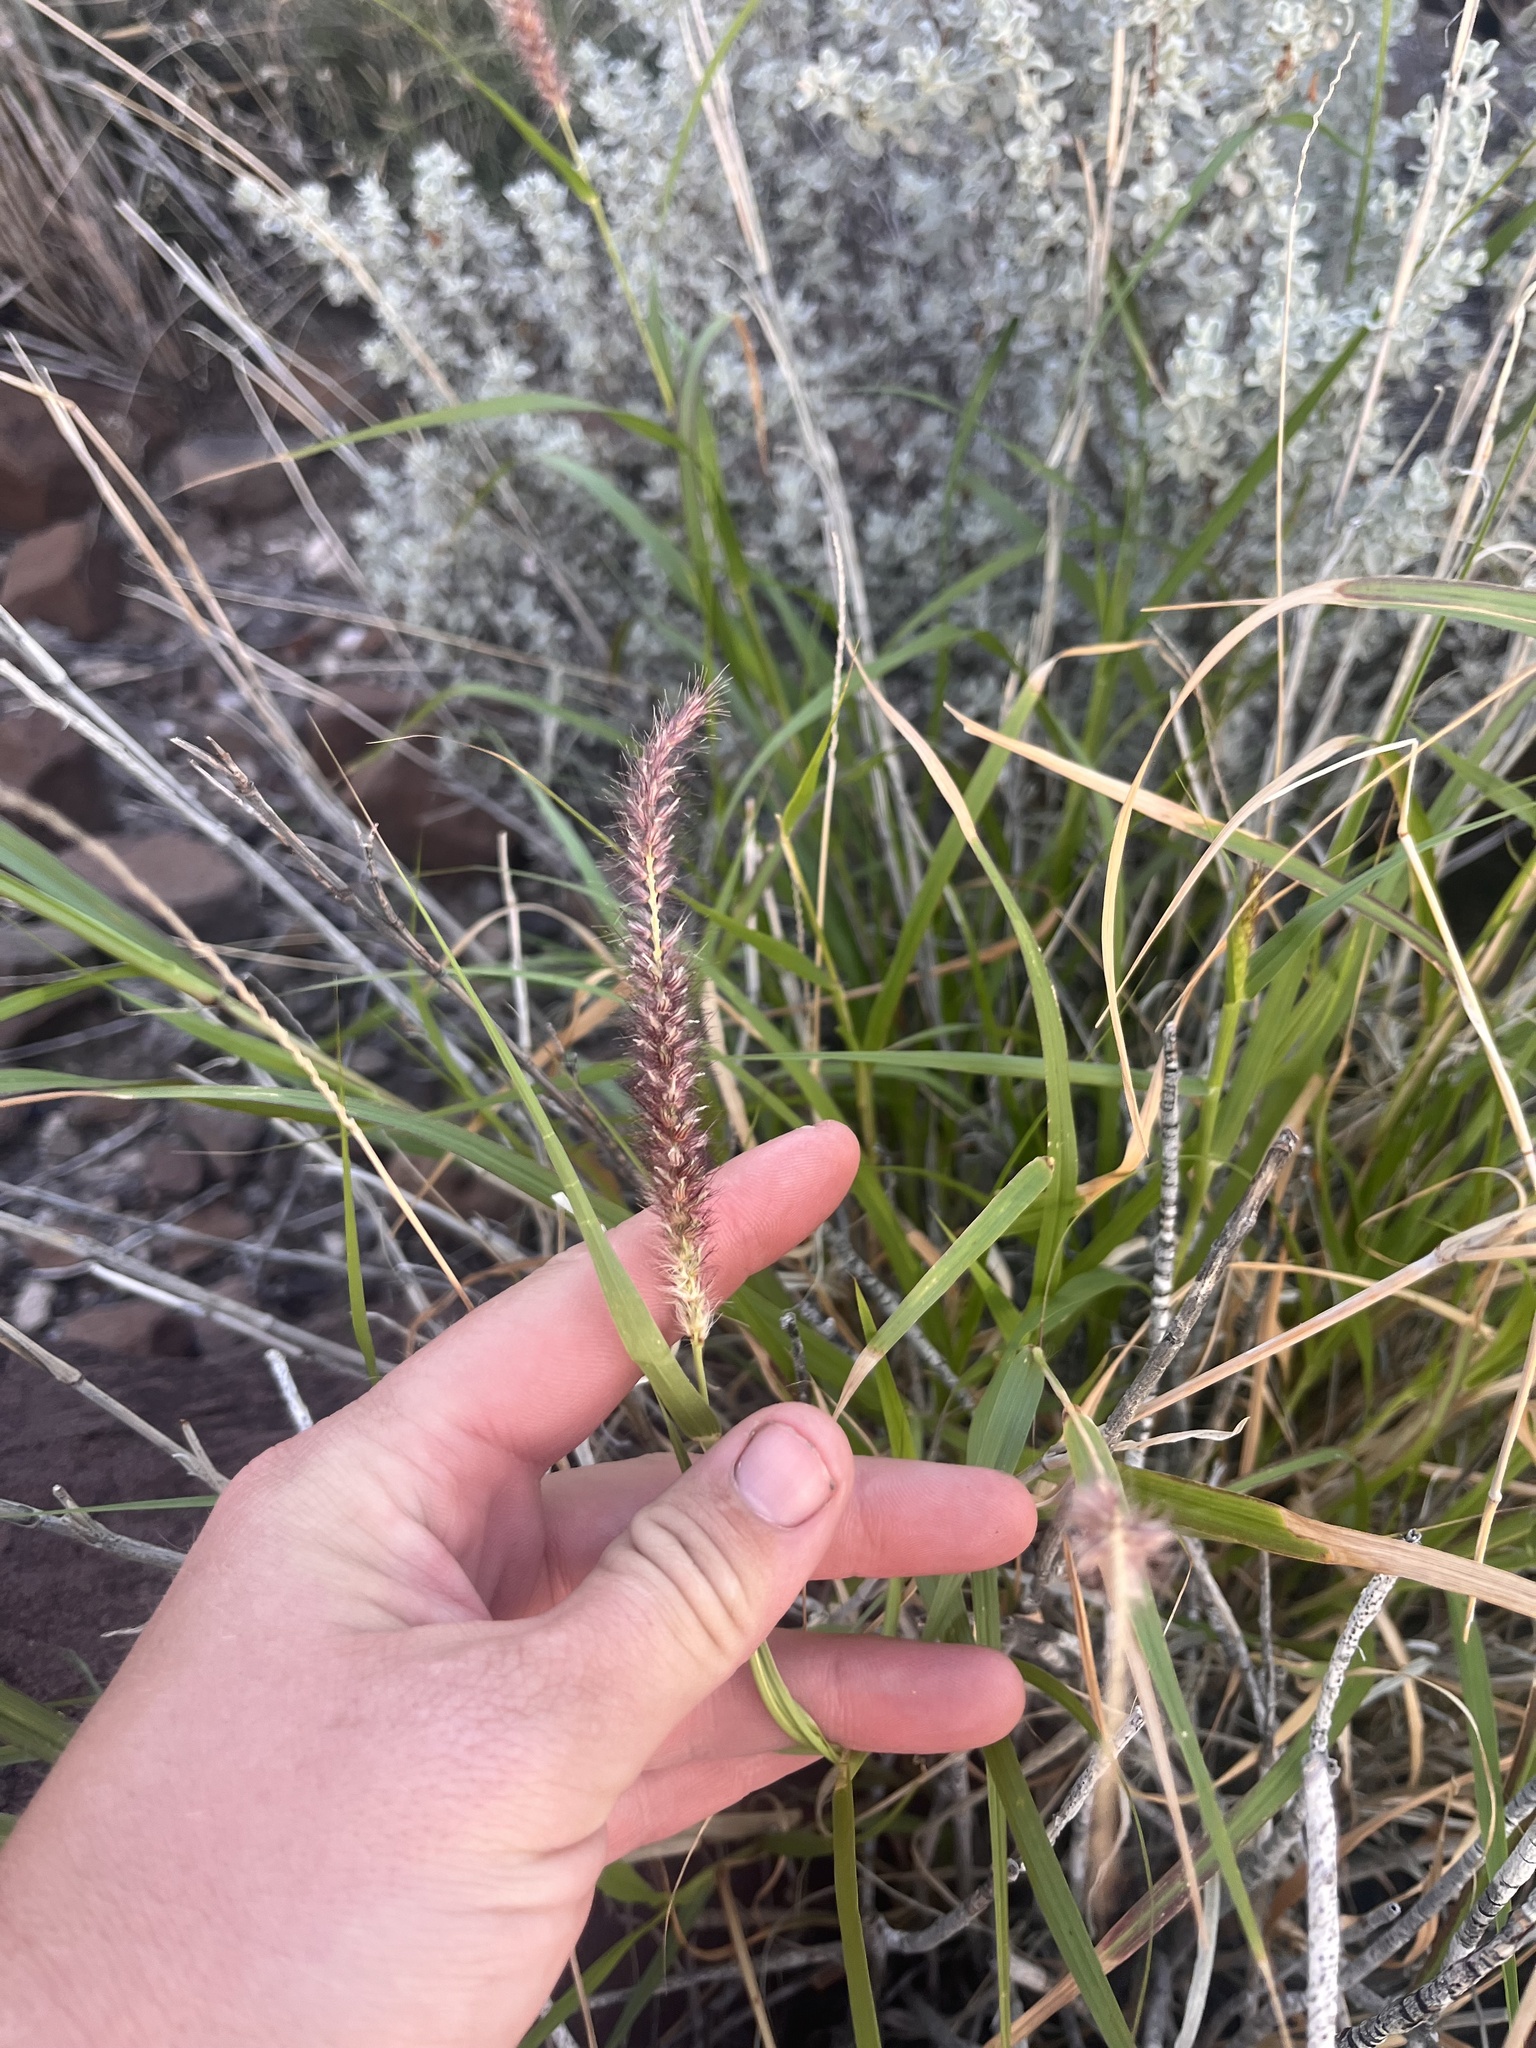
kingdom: Plantae
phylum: Tracheophyta
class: Liliopsida
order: Poales
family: Poaceae
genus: Cenchrus
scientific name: Cenchrus ciliaris
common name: Buffelgrass
